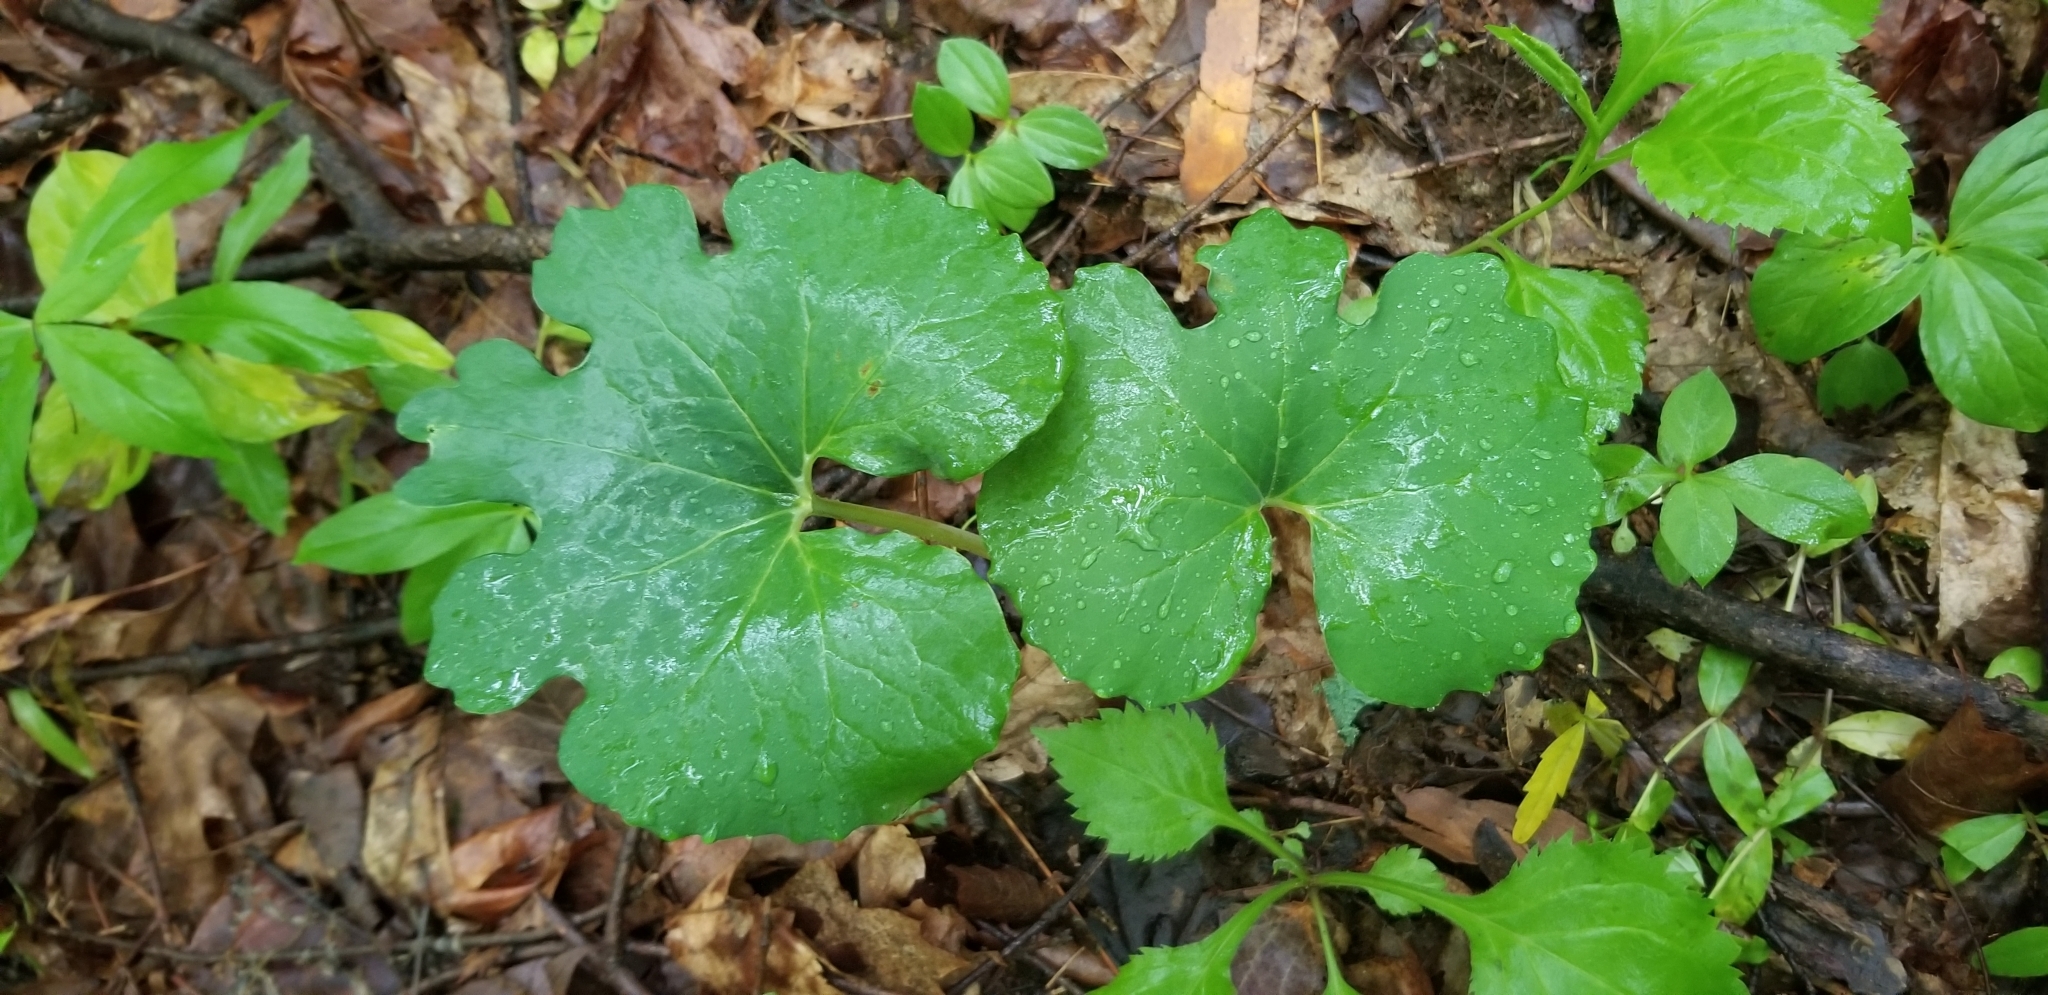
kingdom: Plantae
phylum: Tracheophyta
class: Magnoliopsida
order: Ranunculales
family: Papaveraceae
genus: Sanguinaria
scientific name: Sanguinaria canadensis
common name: Bloodroot
